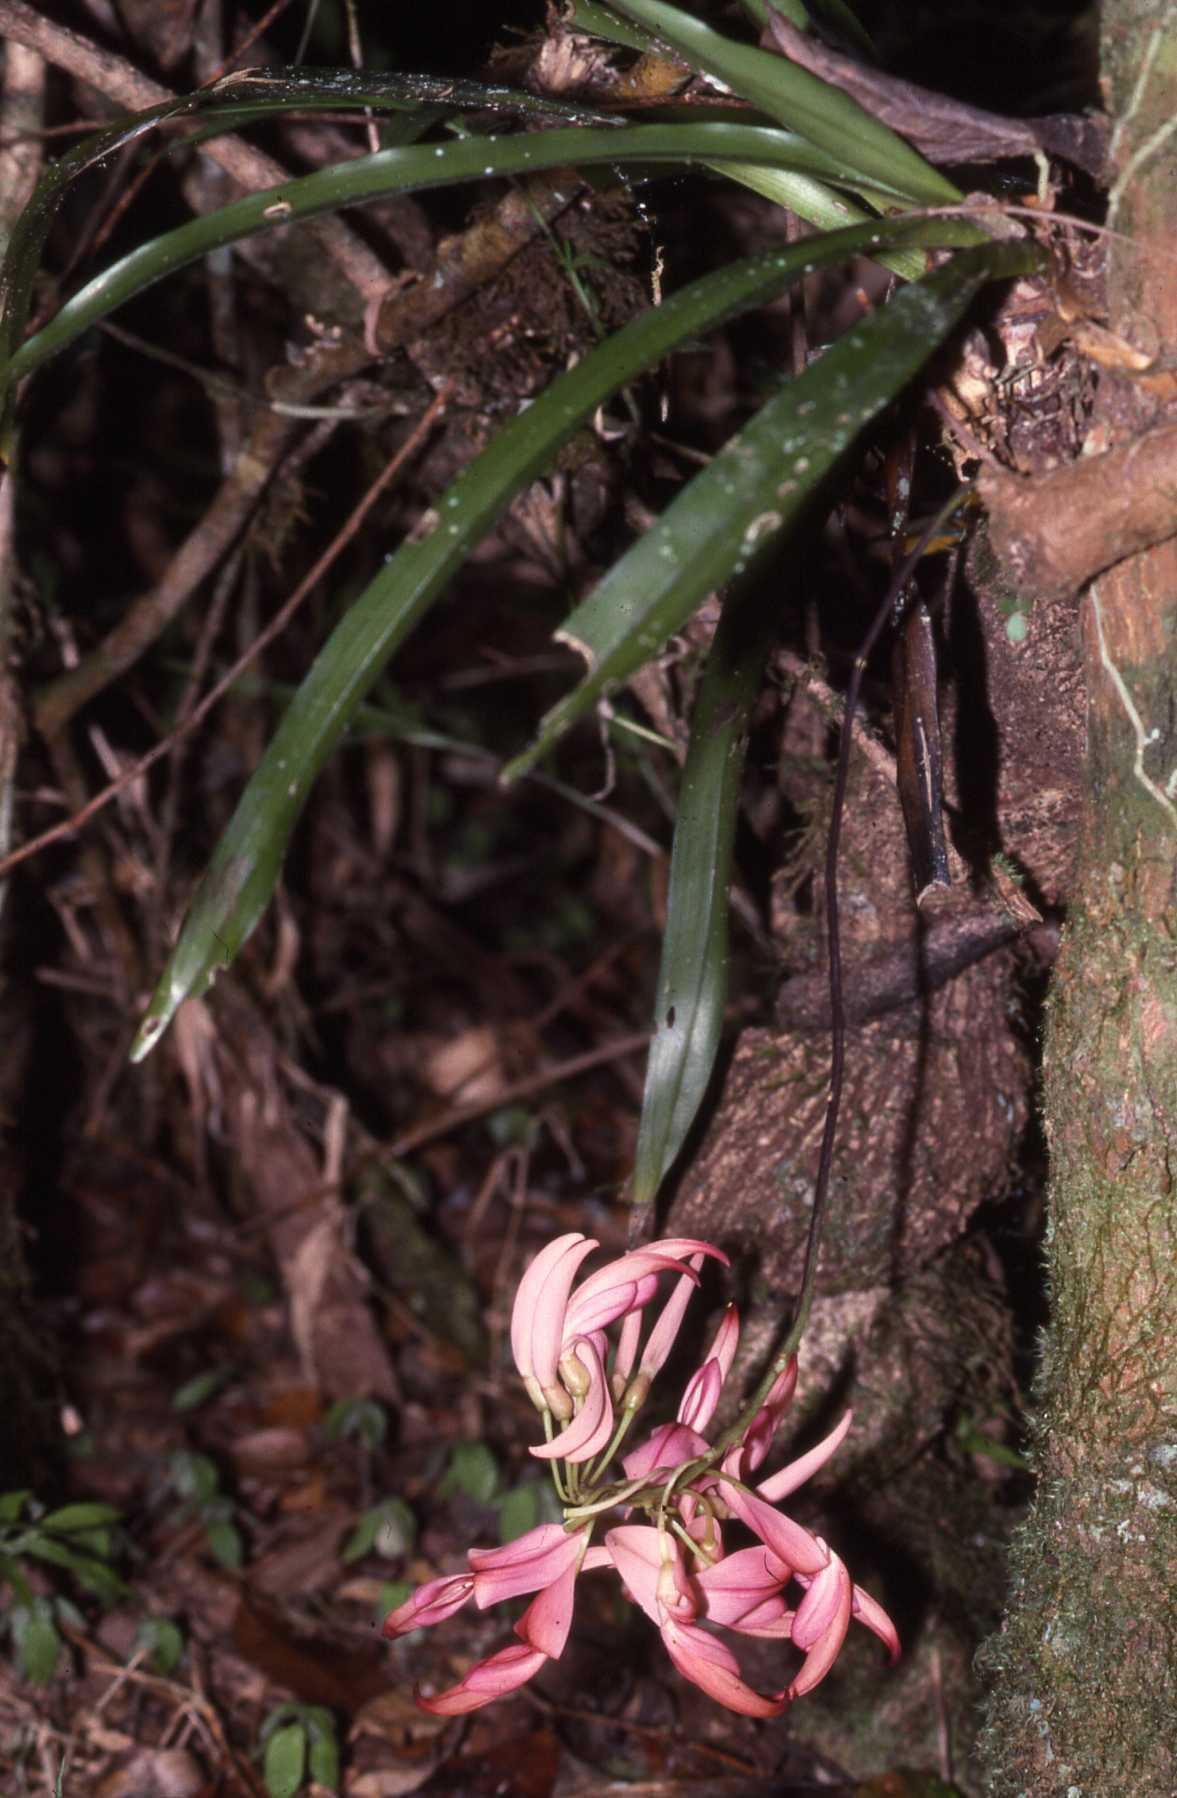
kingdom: Plantae
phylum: Tracheophyta
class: Magnoliopsida
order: Fabales
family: Fabaceae
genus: Strongylodon
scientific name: Strongylodon madagascariensis
